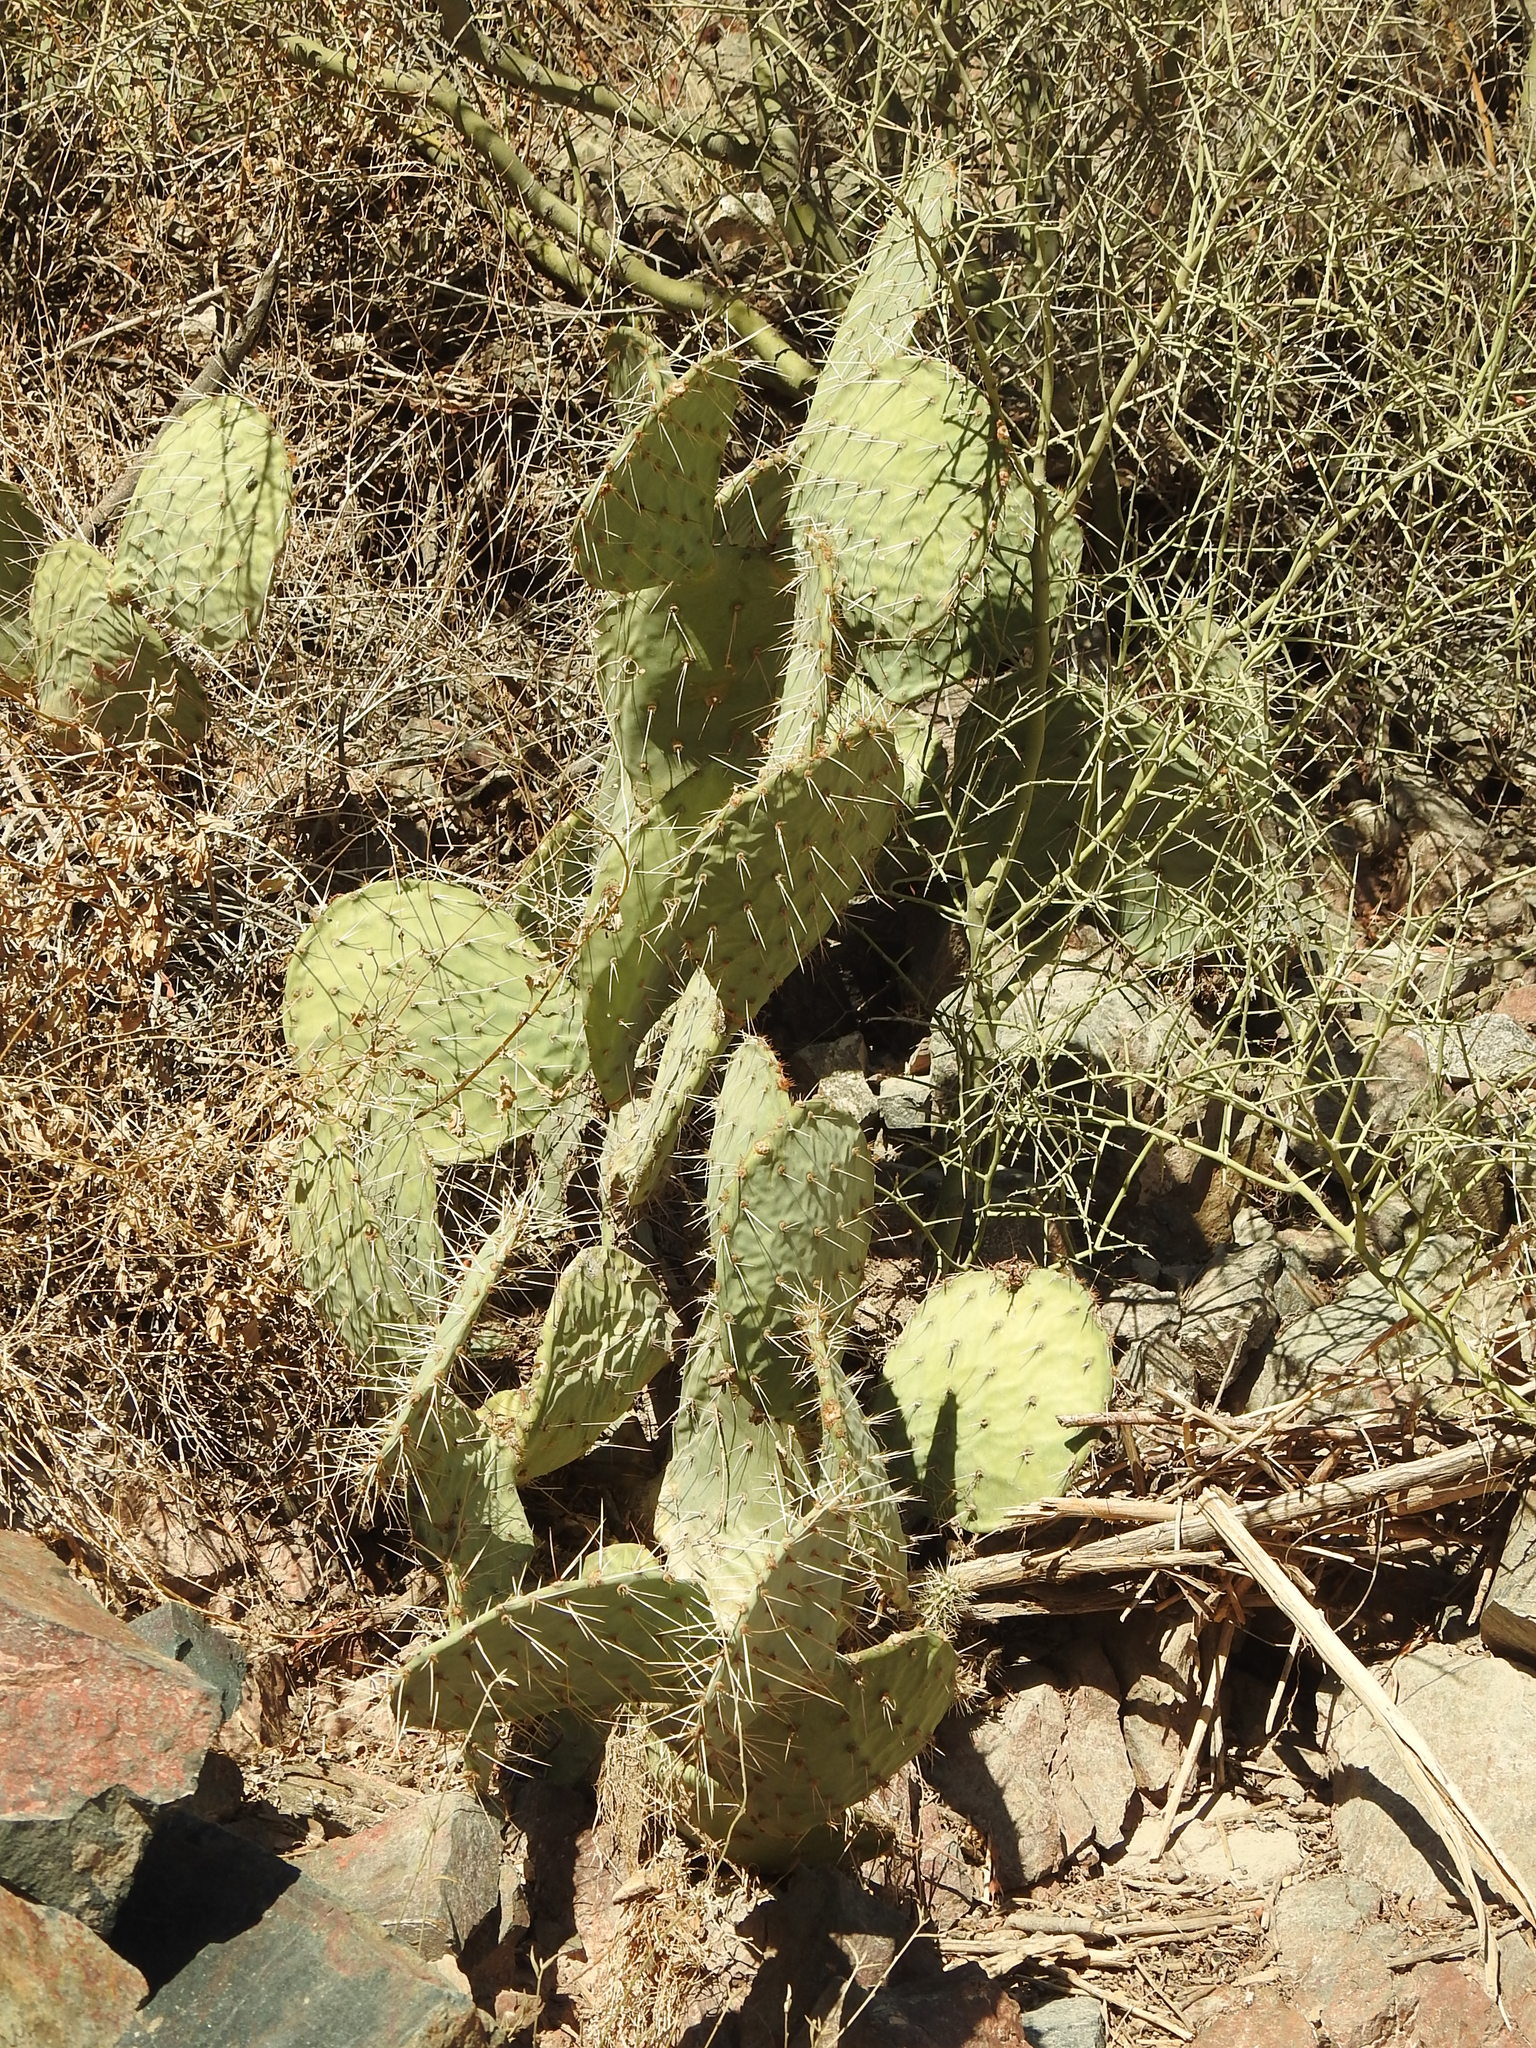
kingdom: Plantae
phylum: Tracheophyta
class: Magnoliopsida
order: Caryophyllales
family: Cactaceae
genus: Opuntia
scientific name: Opuntia engelmannii
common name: Cactus-apple
